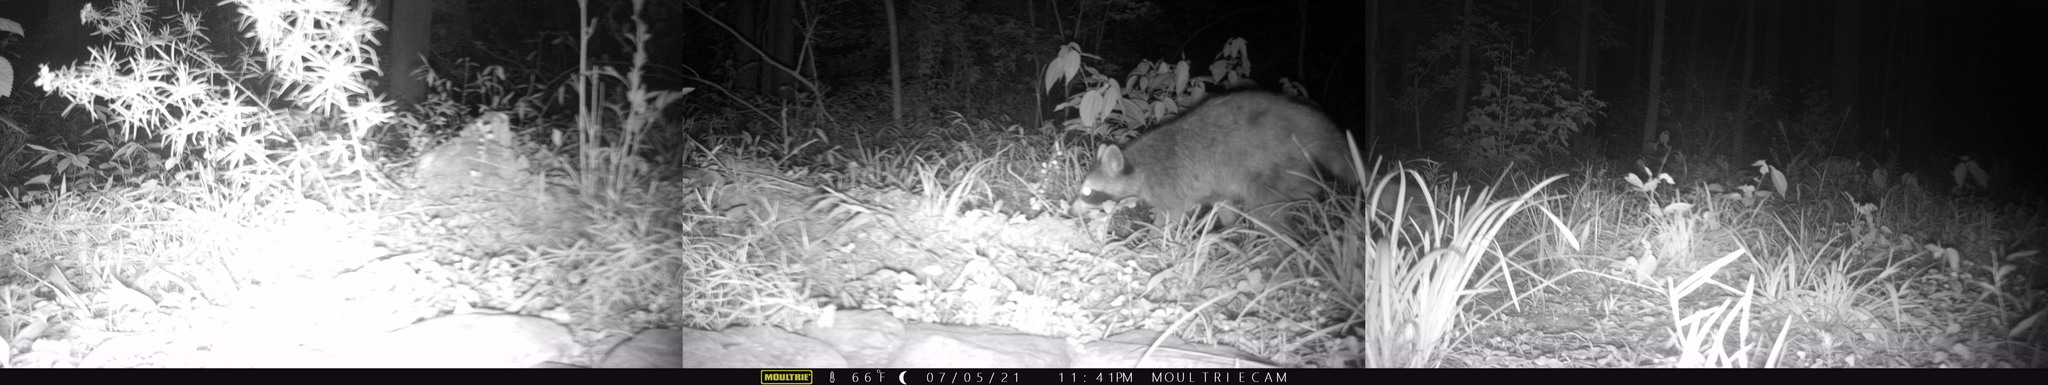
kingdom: Animalia
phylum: Chordata
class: Mammalia
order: Carnivora
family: Procyonidae
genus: Procyon
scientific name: Procyon lotor
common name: Raccoon
